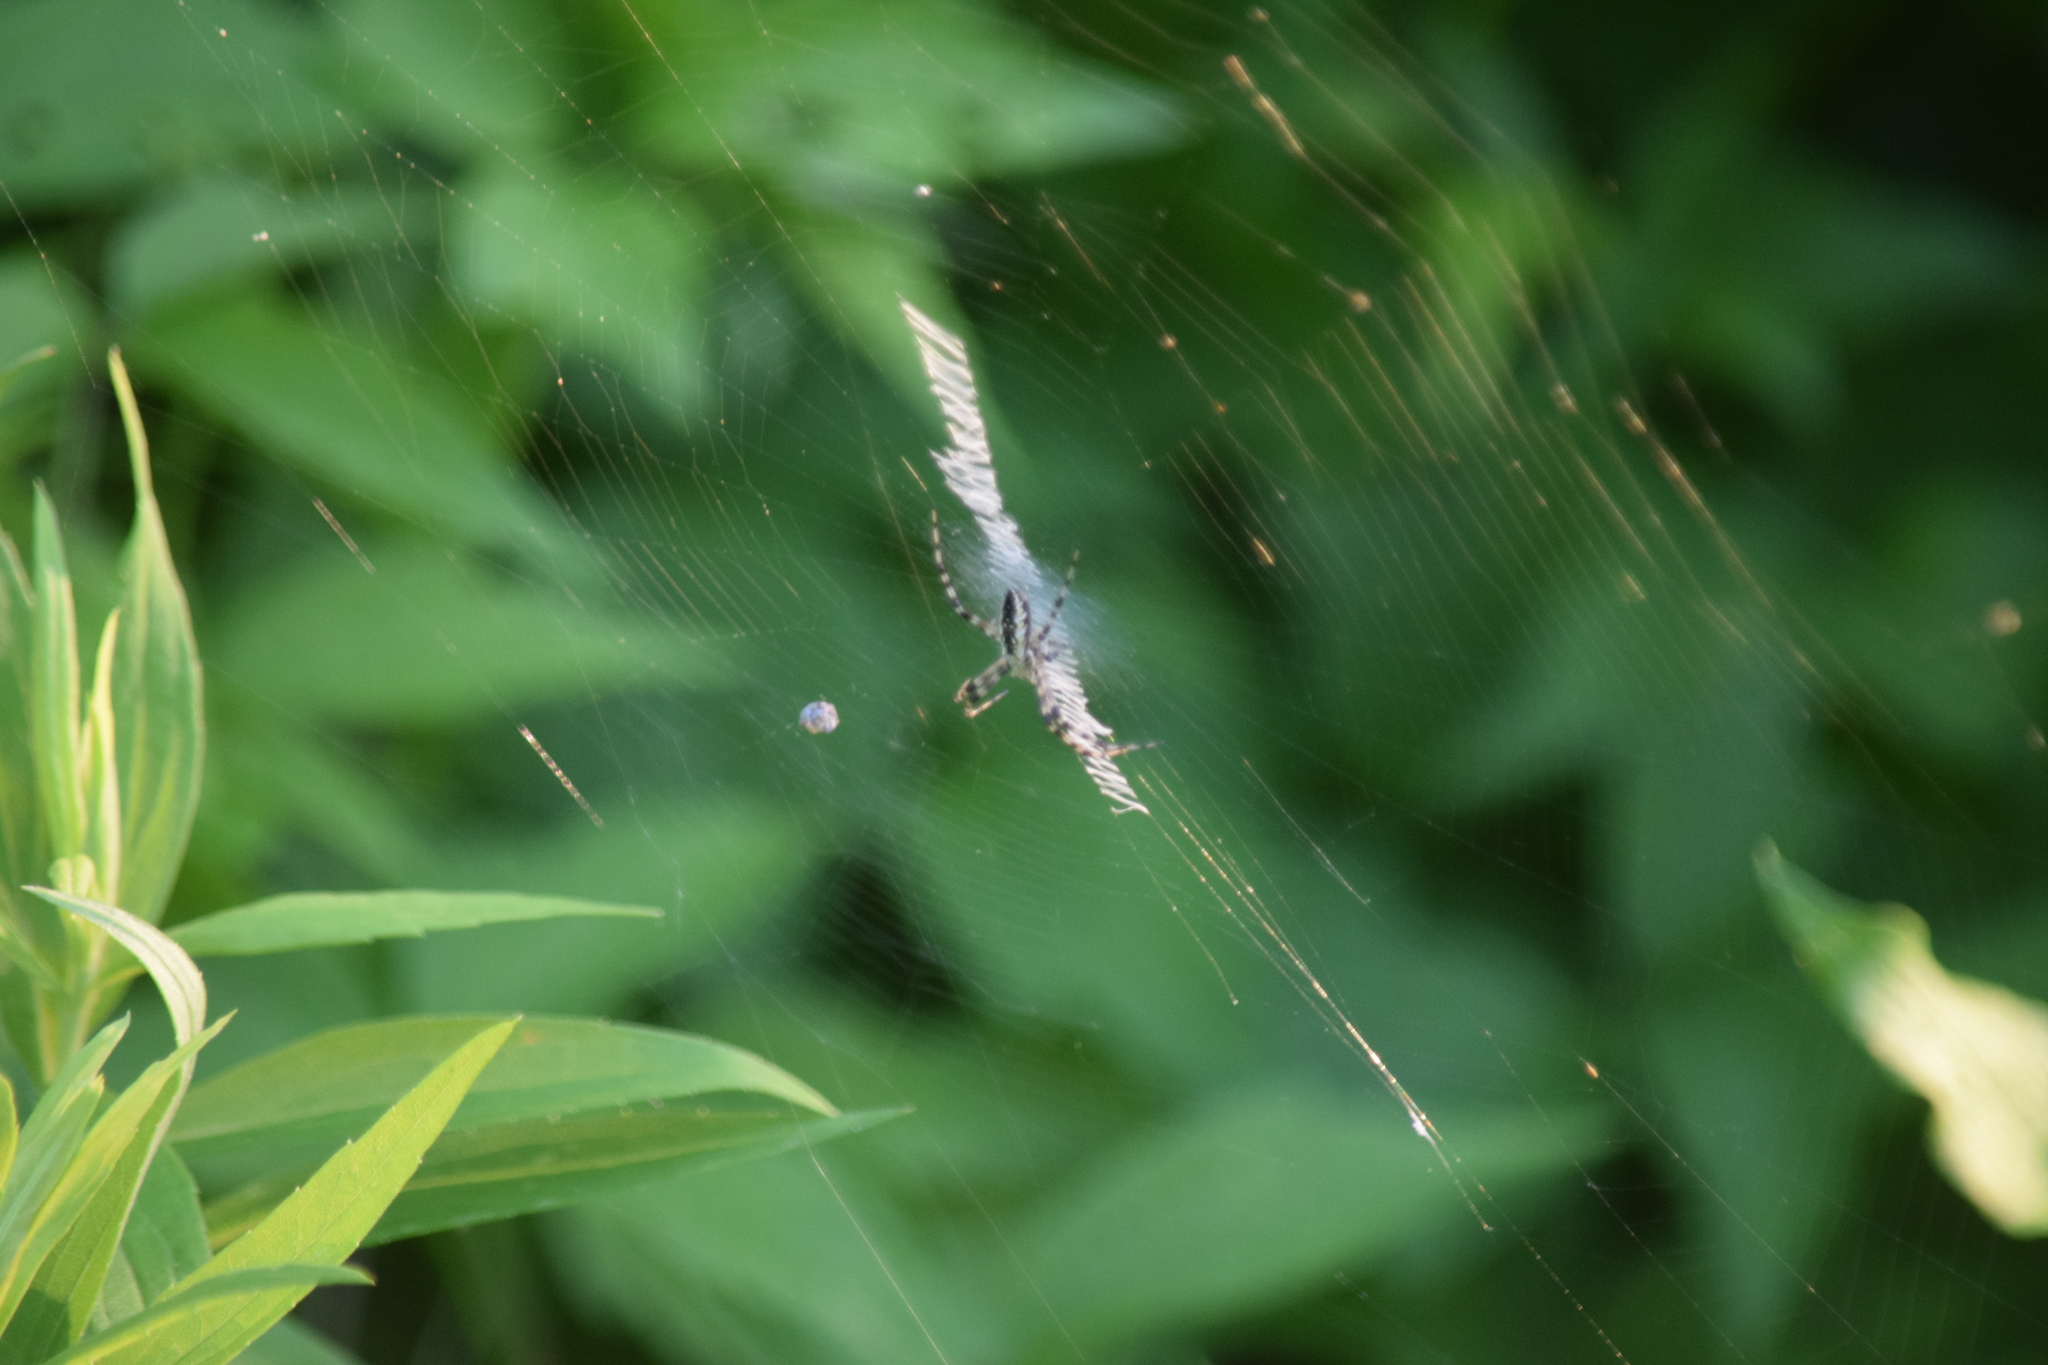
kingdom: Animalia
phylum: Arthropoda
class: Arachnida
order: Araneae
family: Araneidae
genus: Argiope
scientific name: Argiope aurantia
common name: Orb weavers
